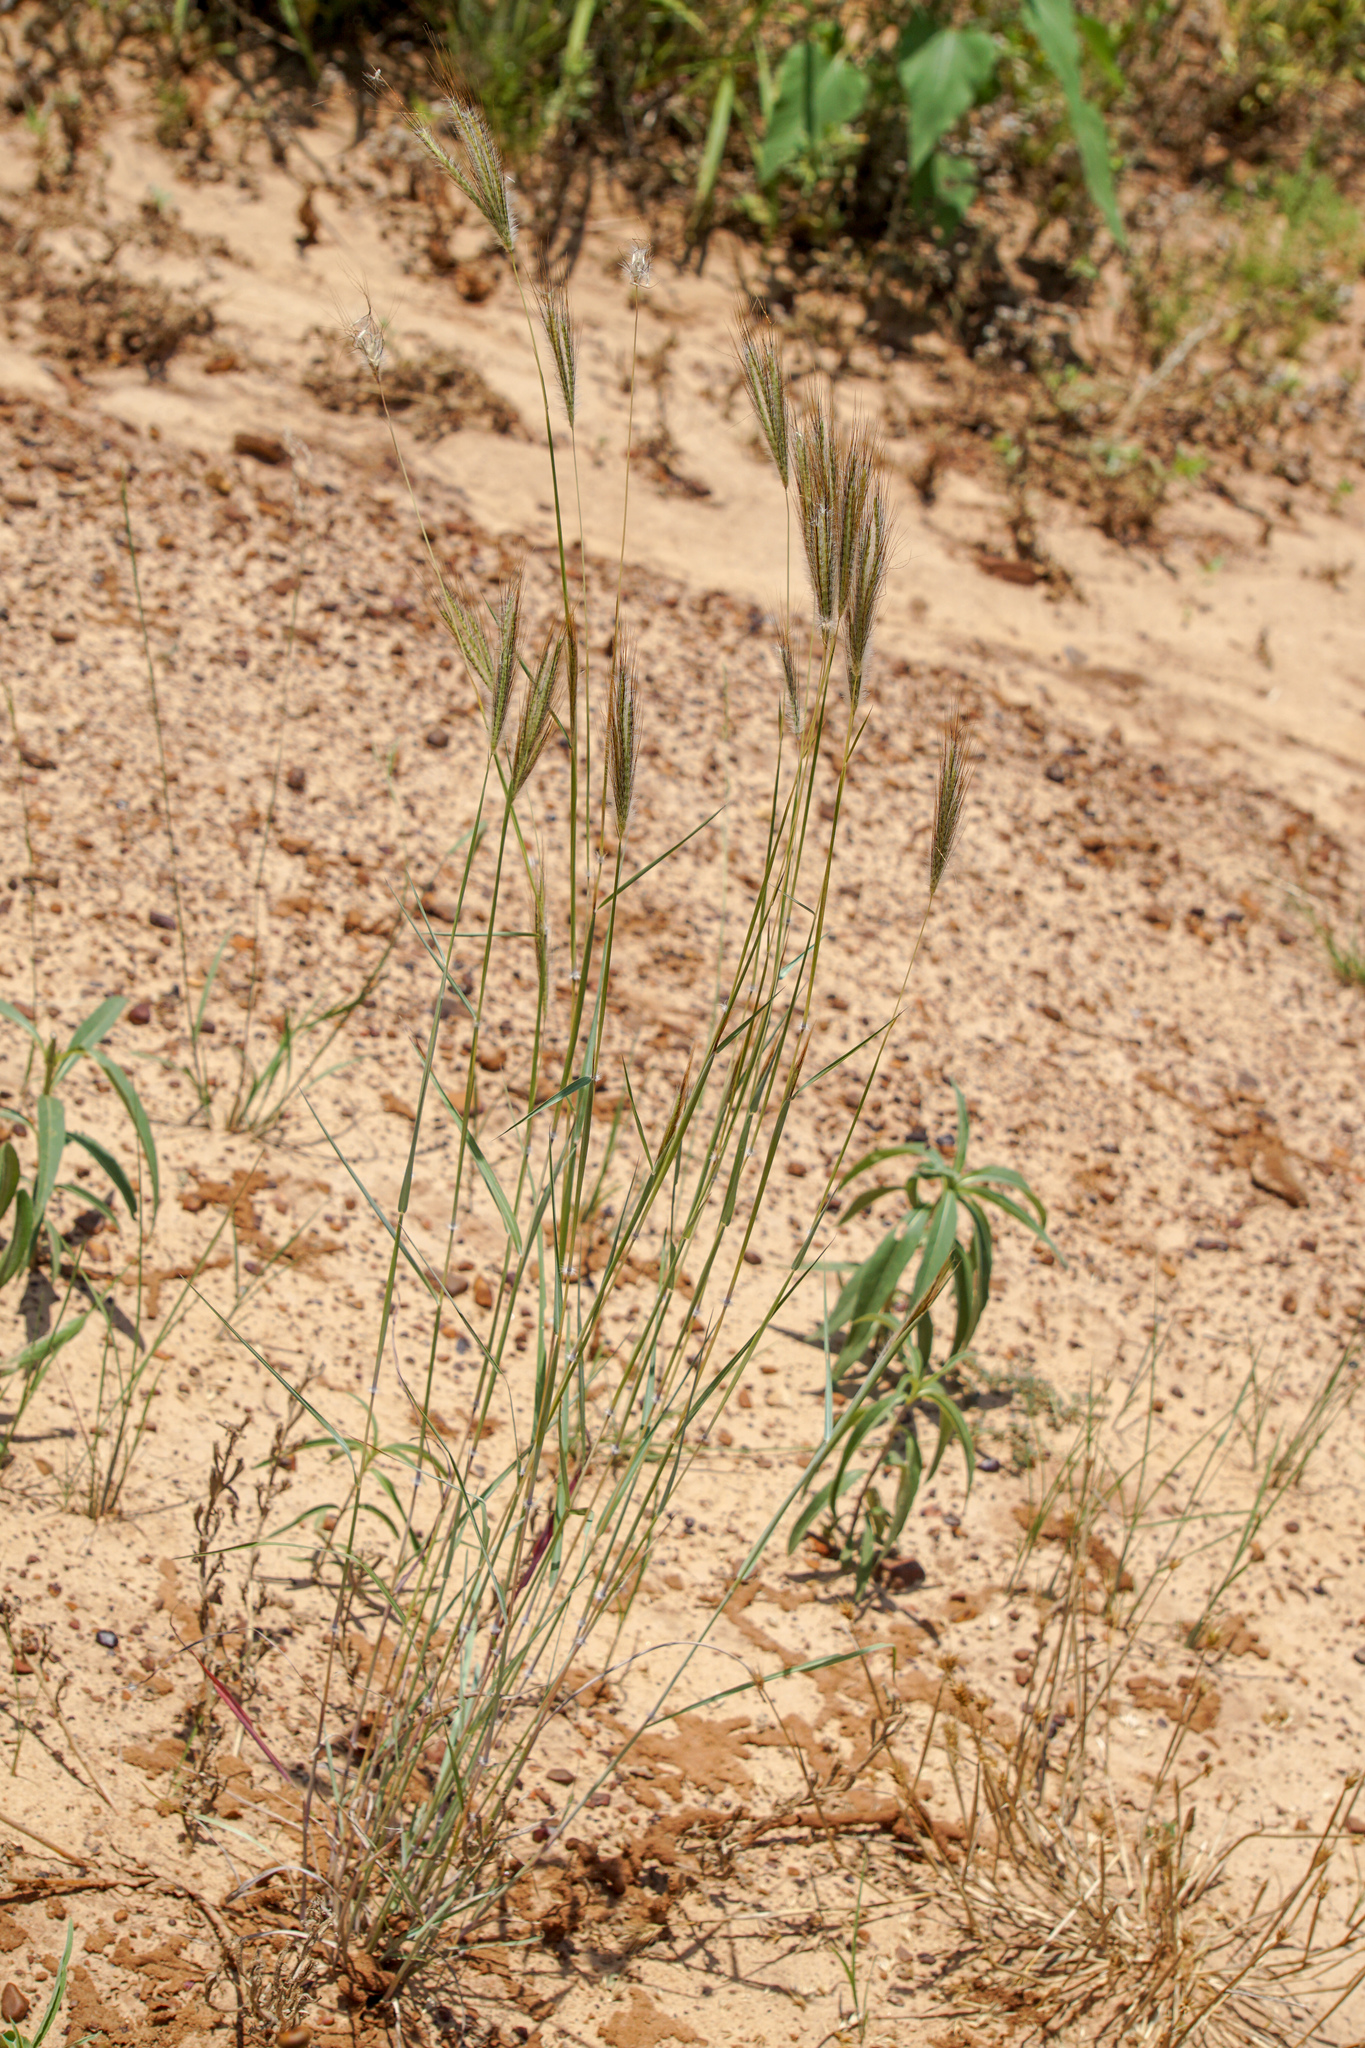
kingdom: Plantae
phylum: Tracheophyta
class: Liliopsida
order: Poales
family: Poaceae
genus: Dichanthium
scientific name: Dichanthium sericeum
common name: Silky bluestem
